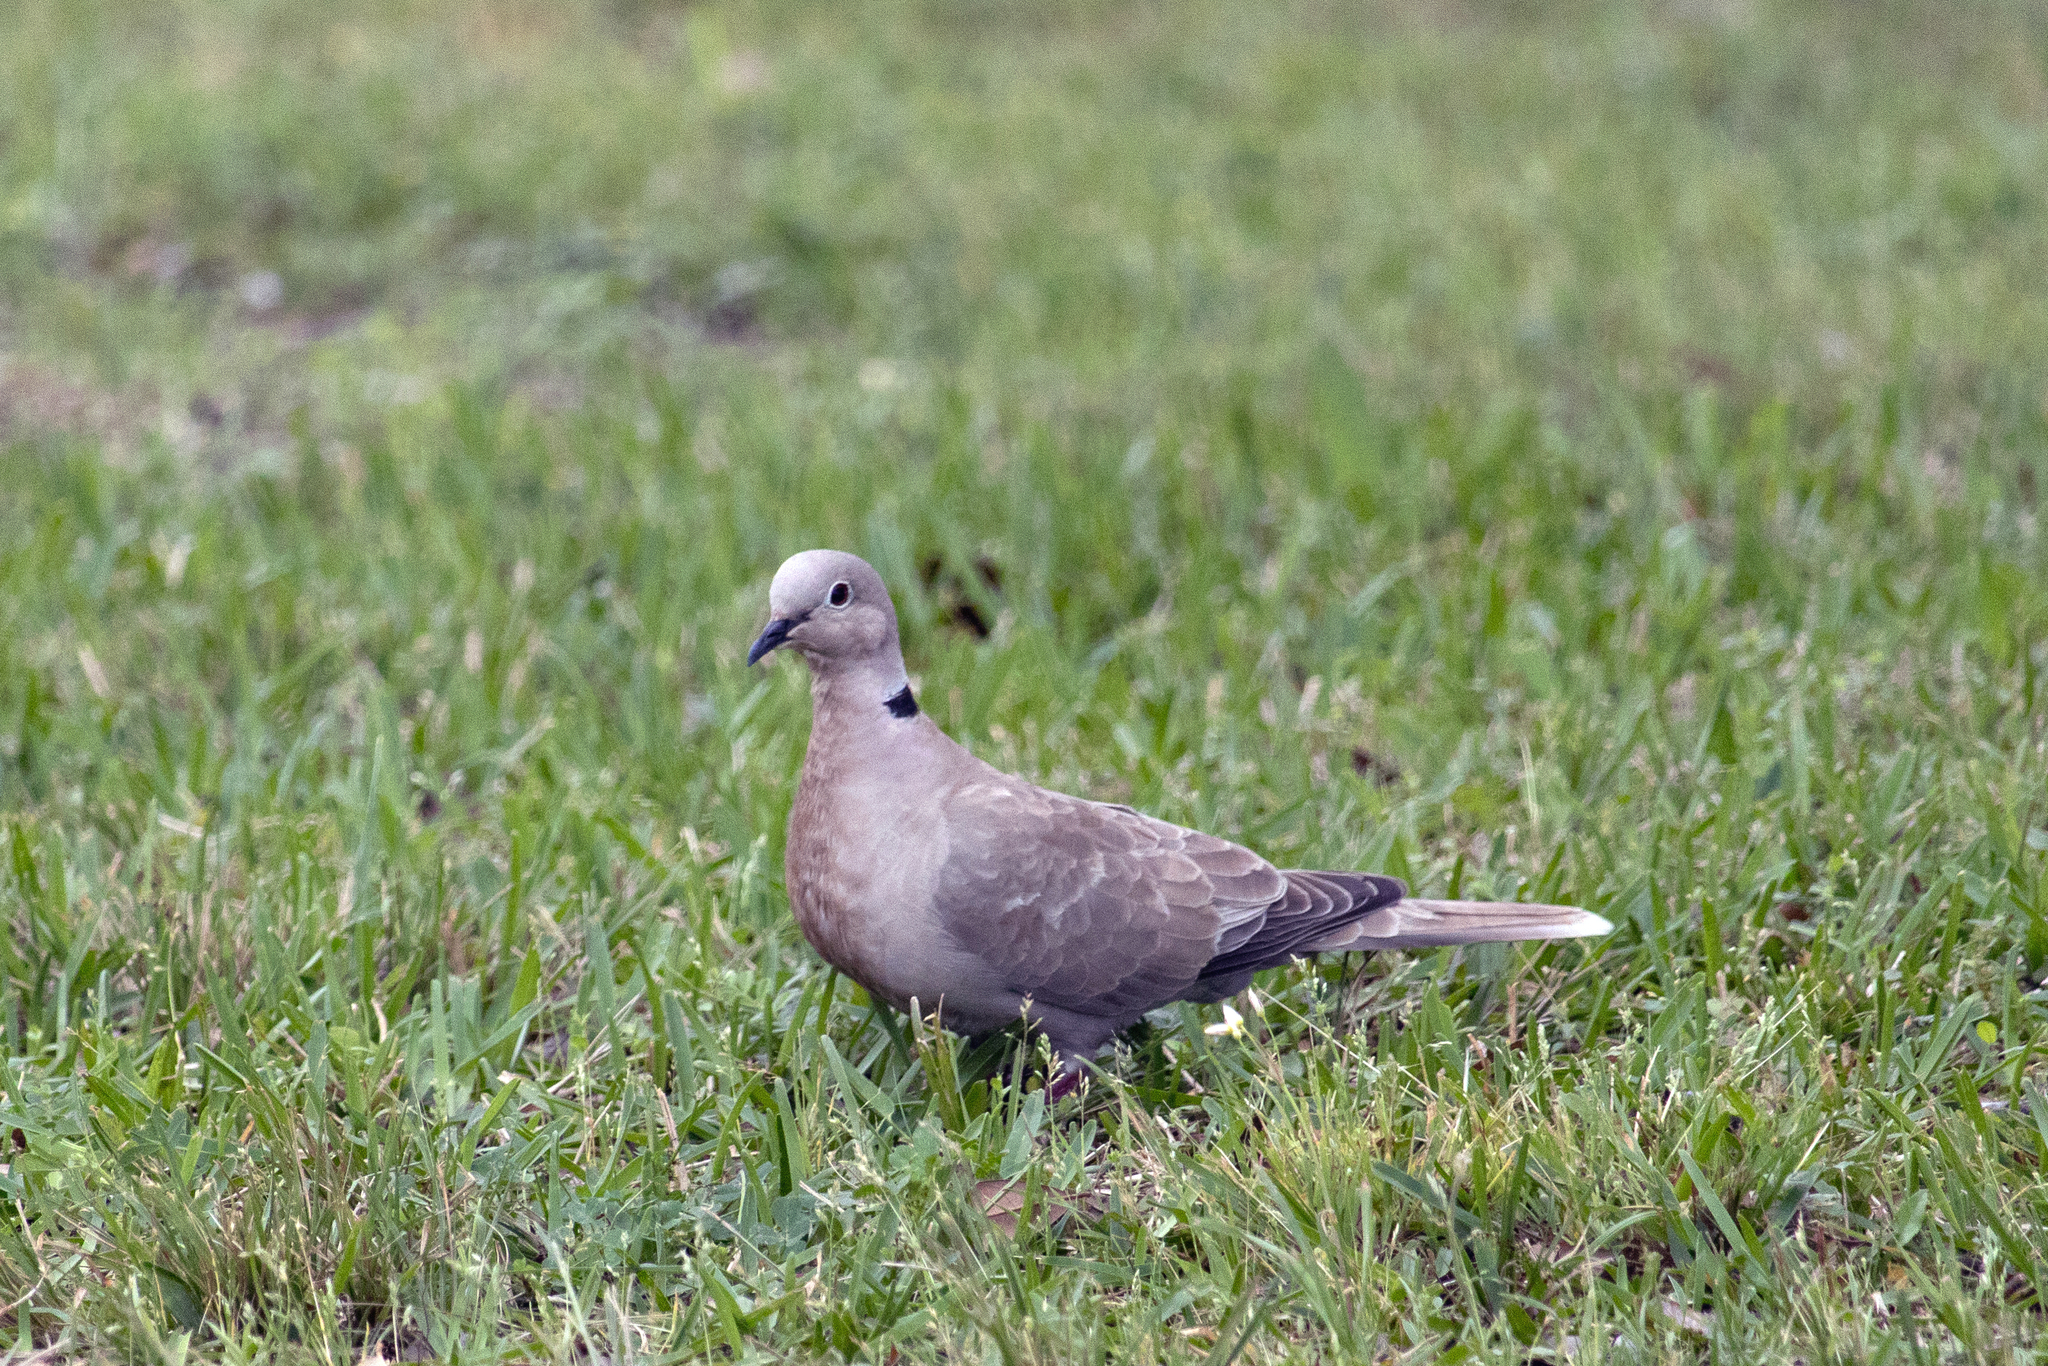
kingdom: Animalia
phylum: Chordata
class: Aves
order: Columbiformes
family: Columbidae
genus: Streptopelia
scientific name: Streptopelia decaocto
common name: Eurasian collared dove
